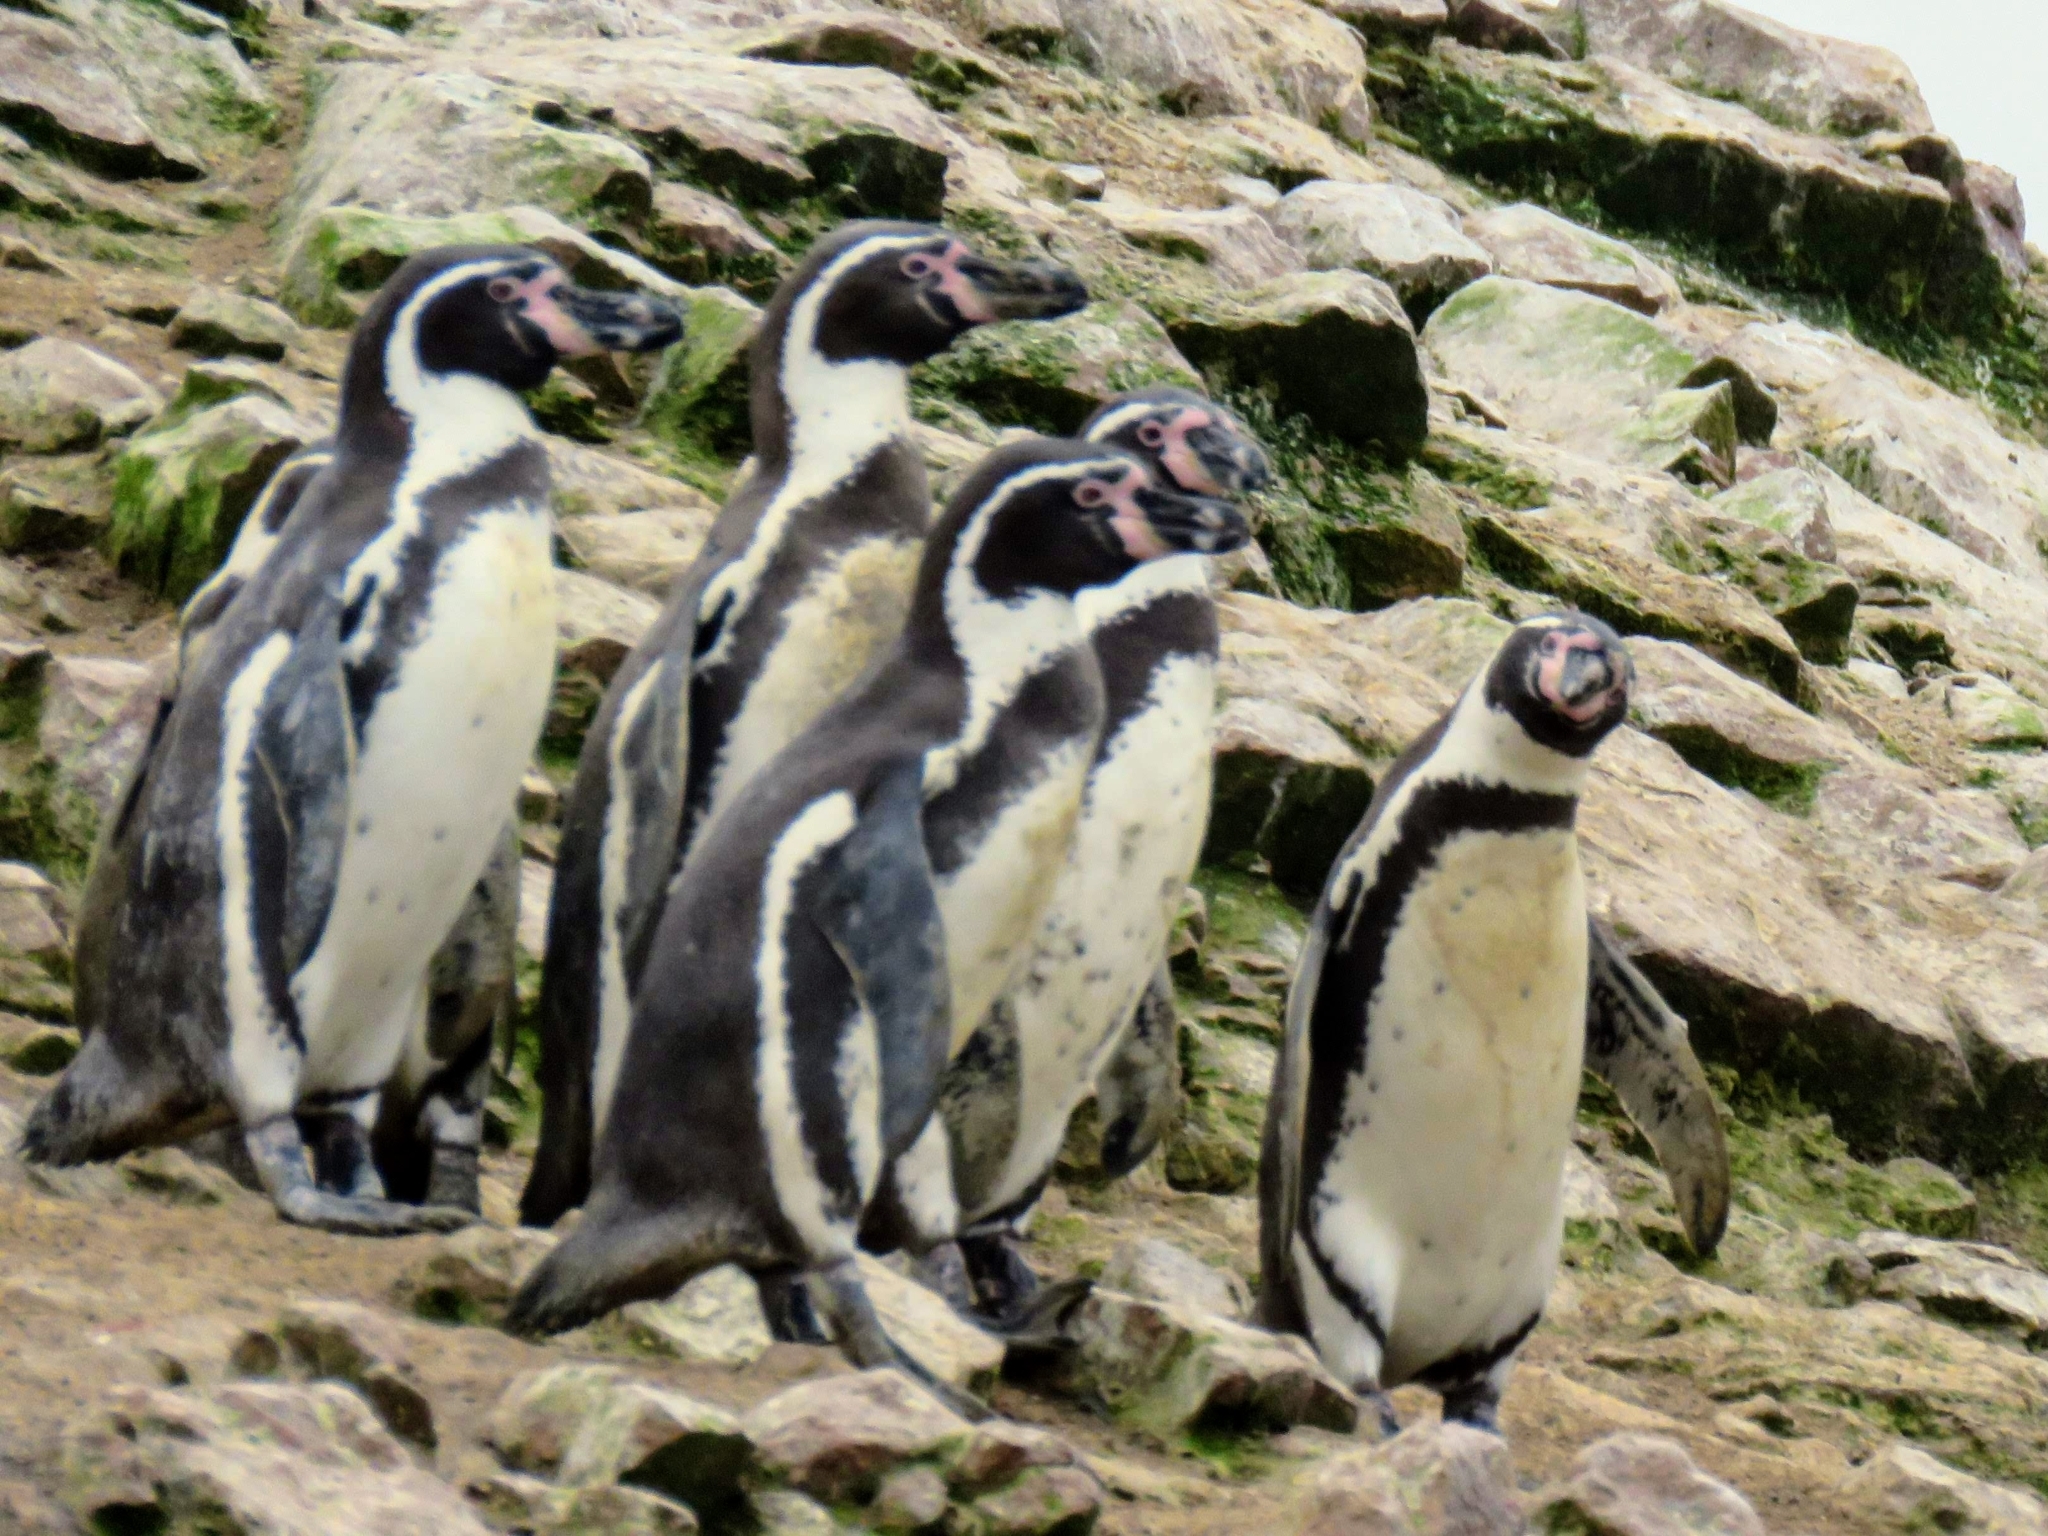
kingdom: Animalia
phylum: Chordata
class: Aves
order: Sphenisciformes
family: Spheniscidae
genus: Spheniscus
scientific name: Spheniscus humboldti
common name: Humboldt penguin
